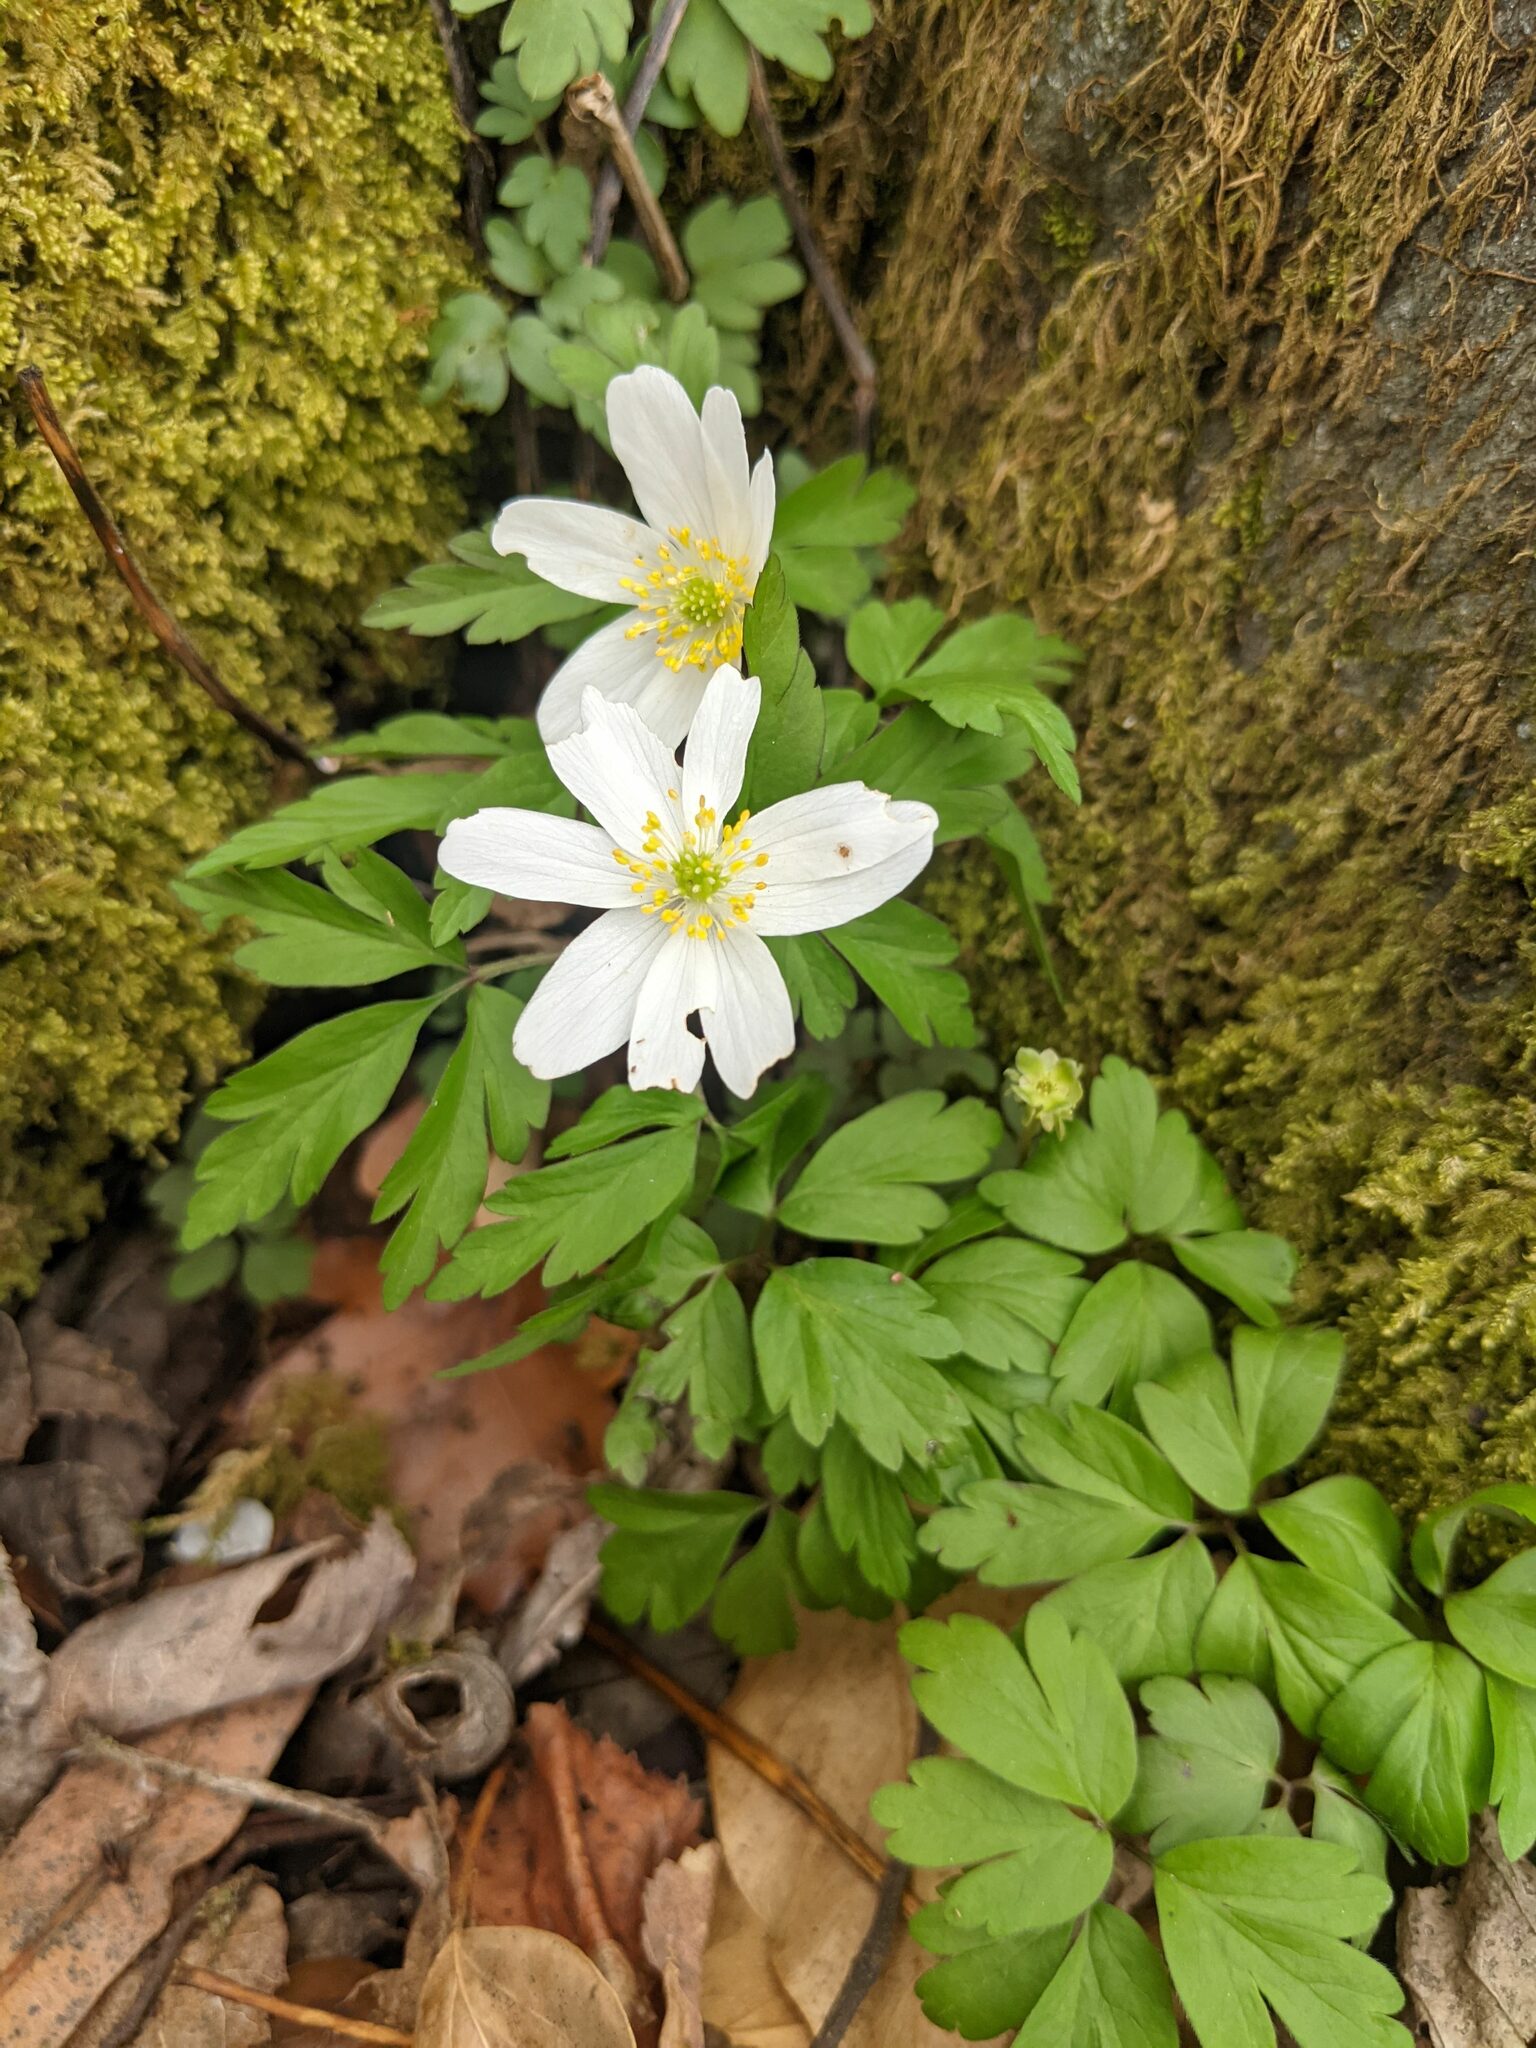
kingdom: Plantae
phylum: Tracheophyta
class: Magnoliopsida
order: Ranunculales
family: Ranunculaceae
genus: Anemone
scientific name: Anemone nemorosa
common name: Wood anemone
